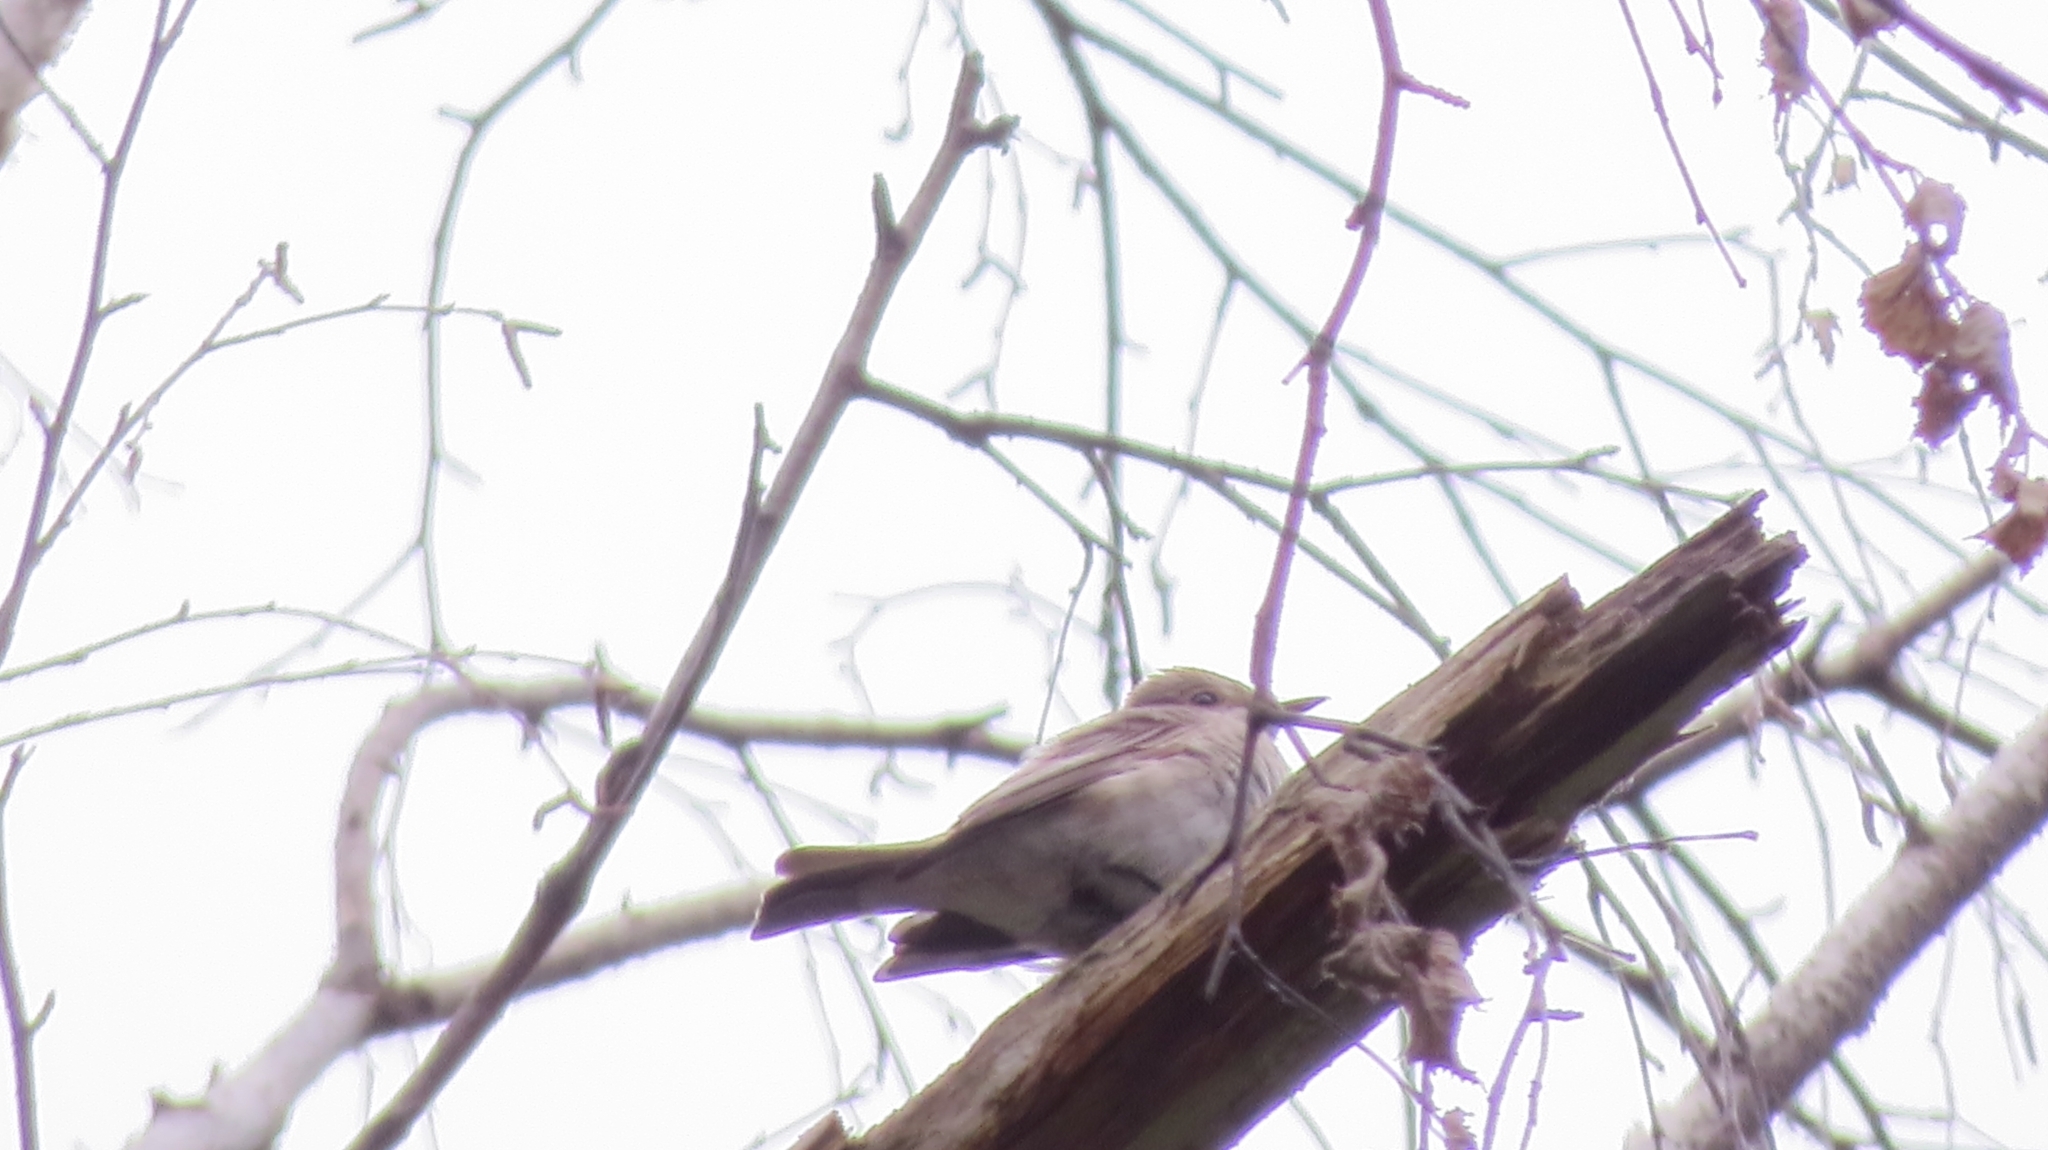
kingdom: Animalia
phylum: Chordata
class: Aves
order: Passeriformes
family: Muscicapidae
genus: Muscicapa
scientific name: Muscicapa striata
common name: Spotted flycatcher
